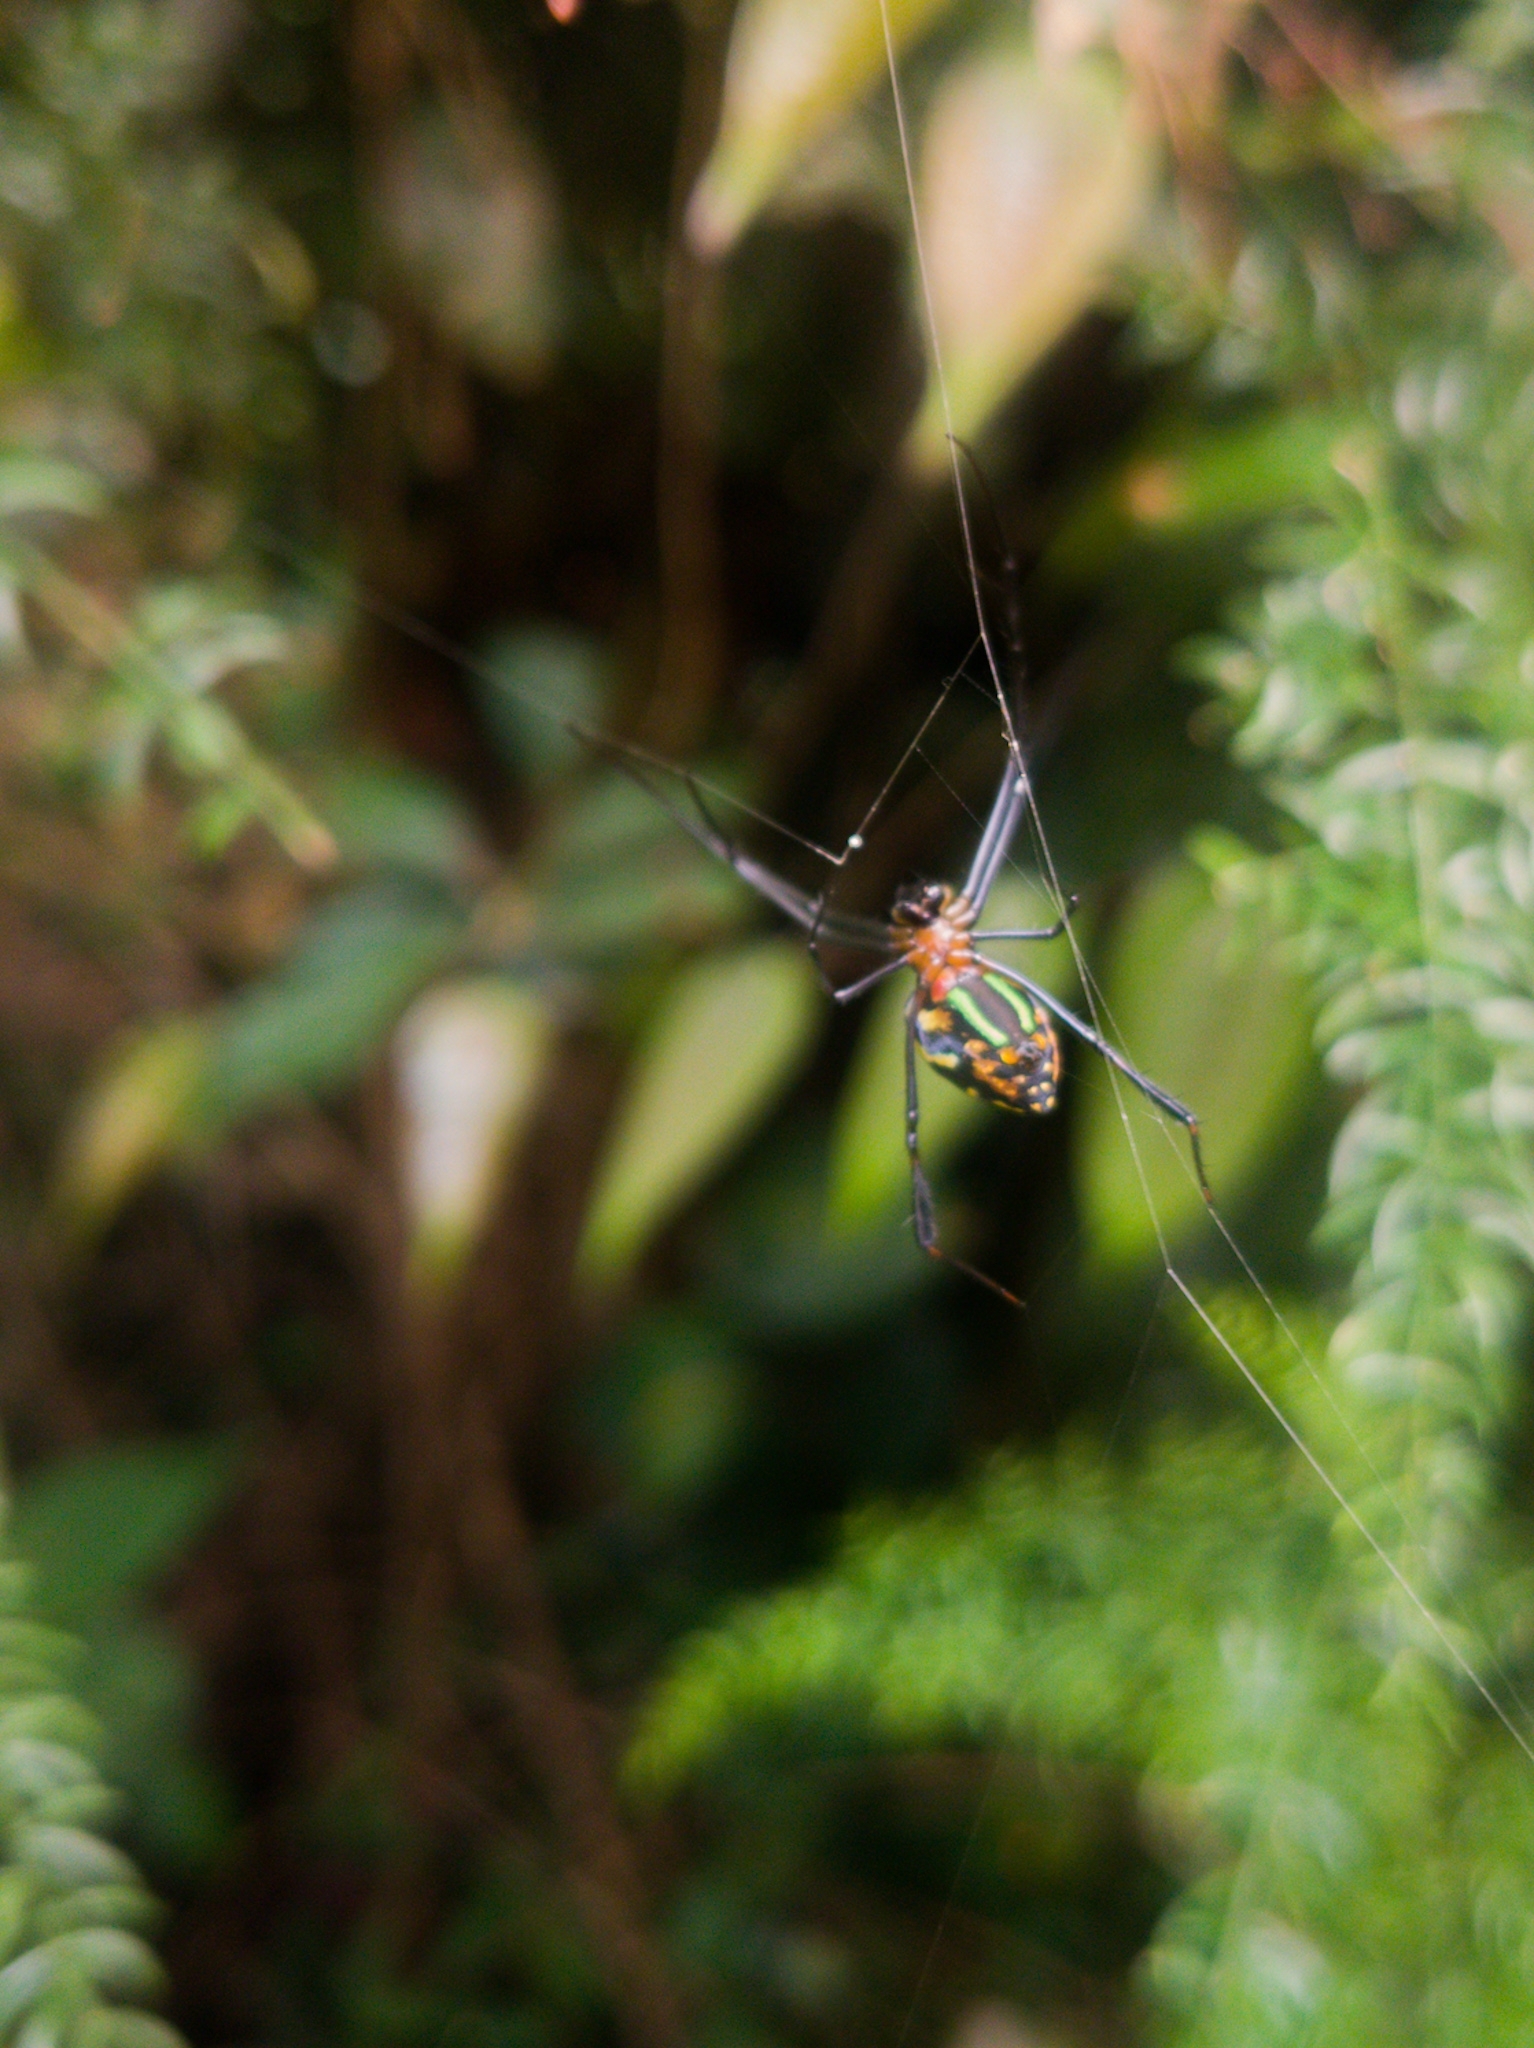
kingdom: Animalia
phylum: Arthropoda
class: Arachnida
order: Araneae
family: Tetragnathidae
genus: Leucauge
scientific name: Leucauge tessellata
